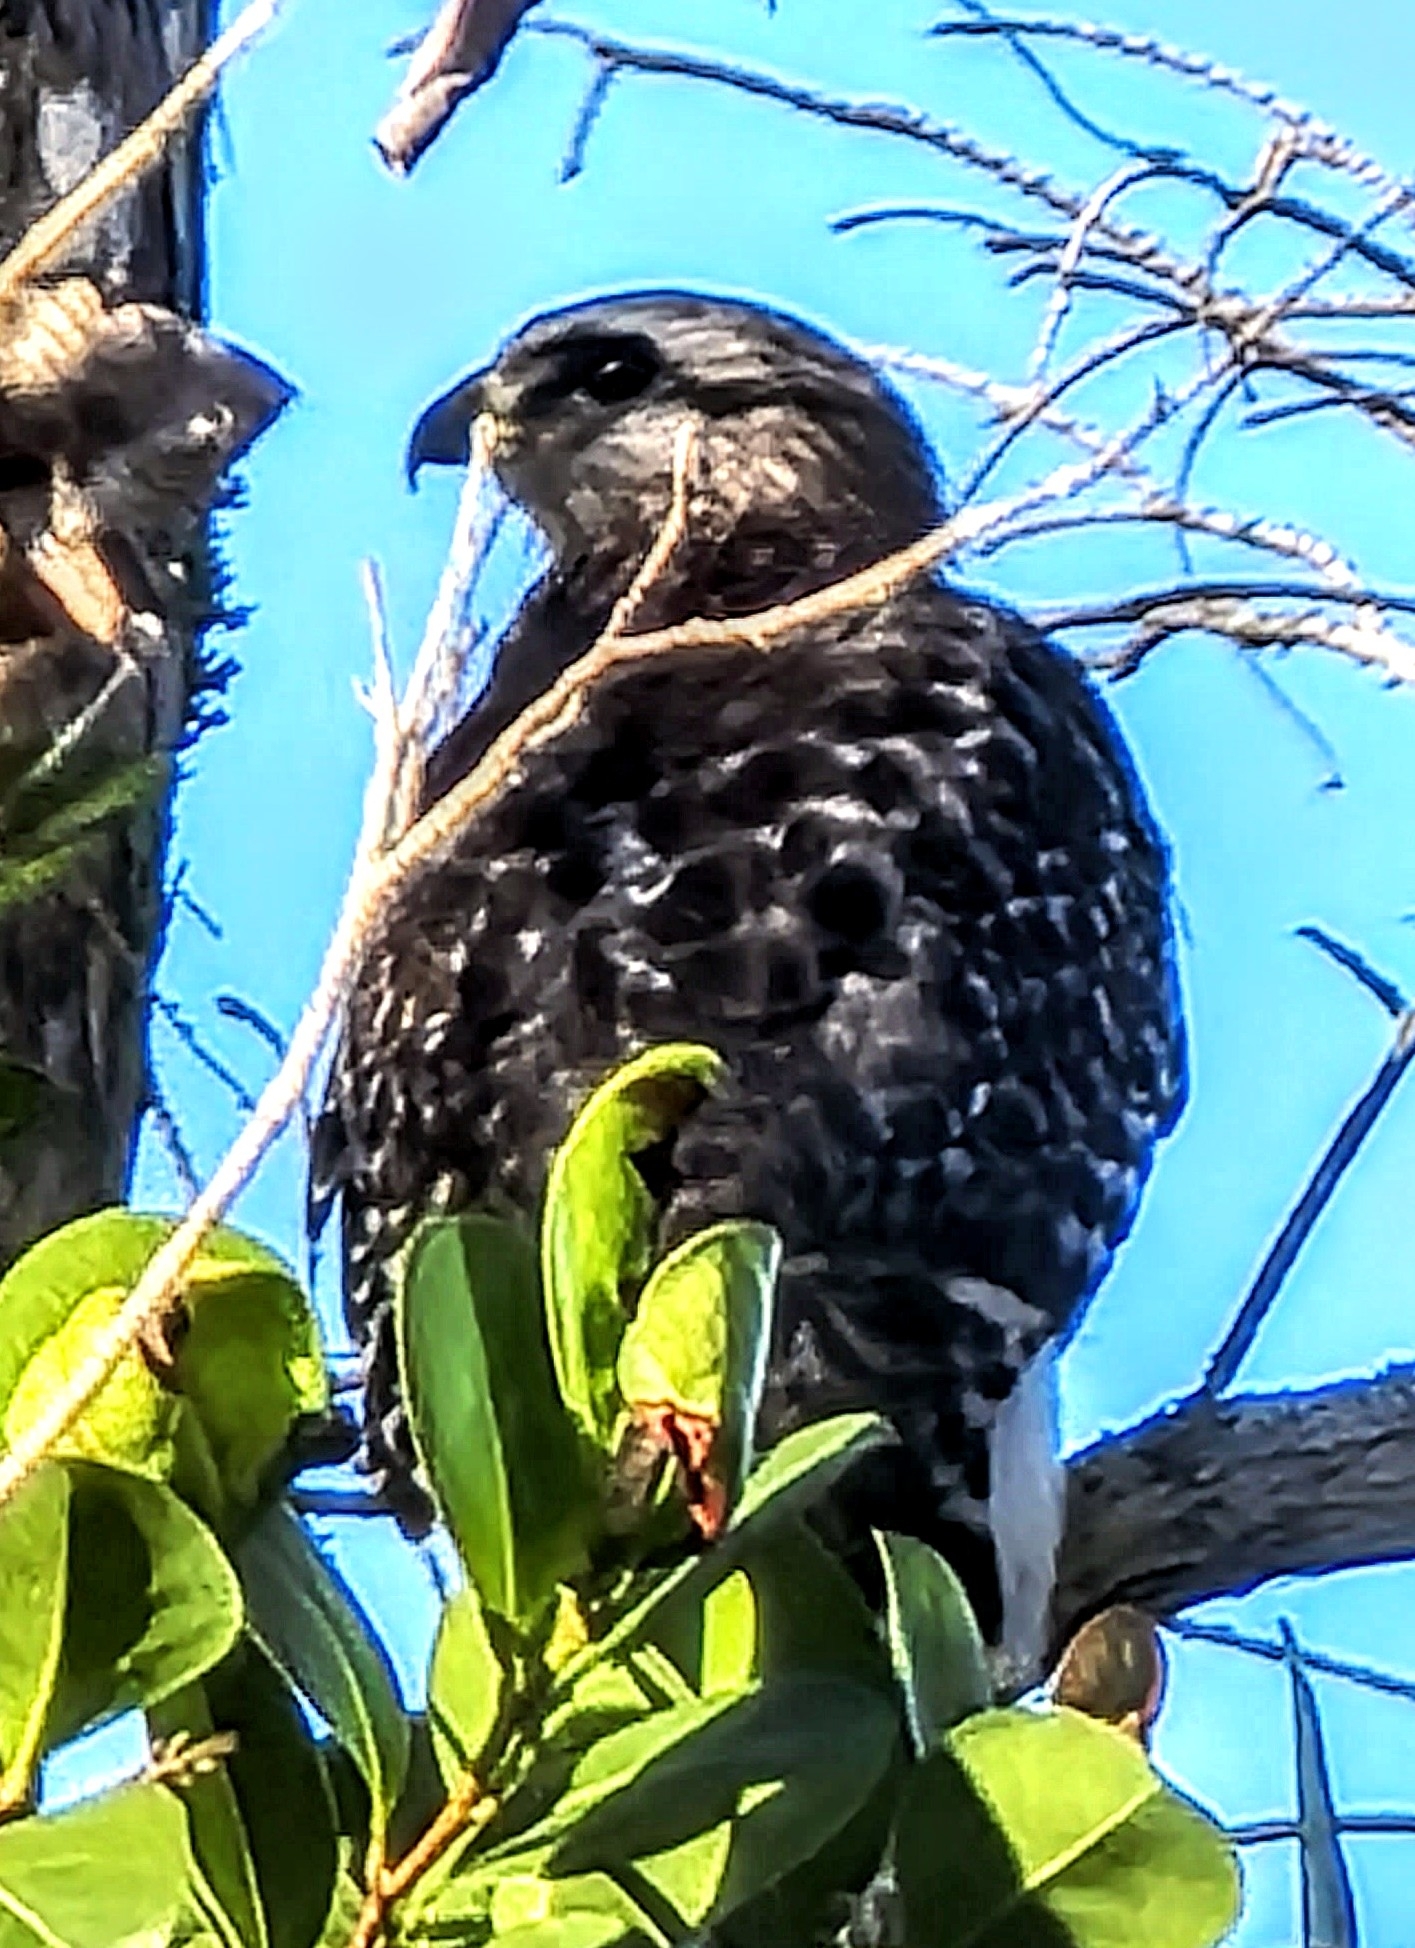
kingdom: Animalia
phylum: Chordata
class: Aves
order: Accipitriformes
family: Accipitridae
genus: Buteo
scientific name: Buteo lineatus
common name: Red-shouldered hawk
